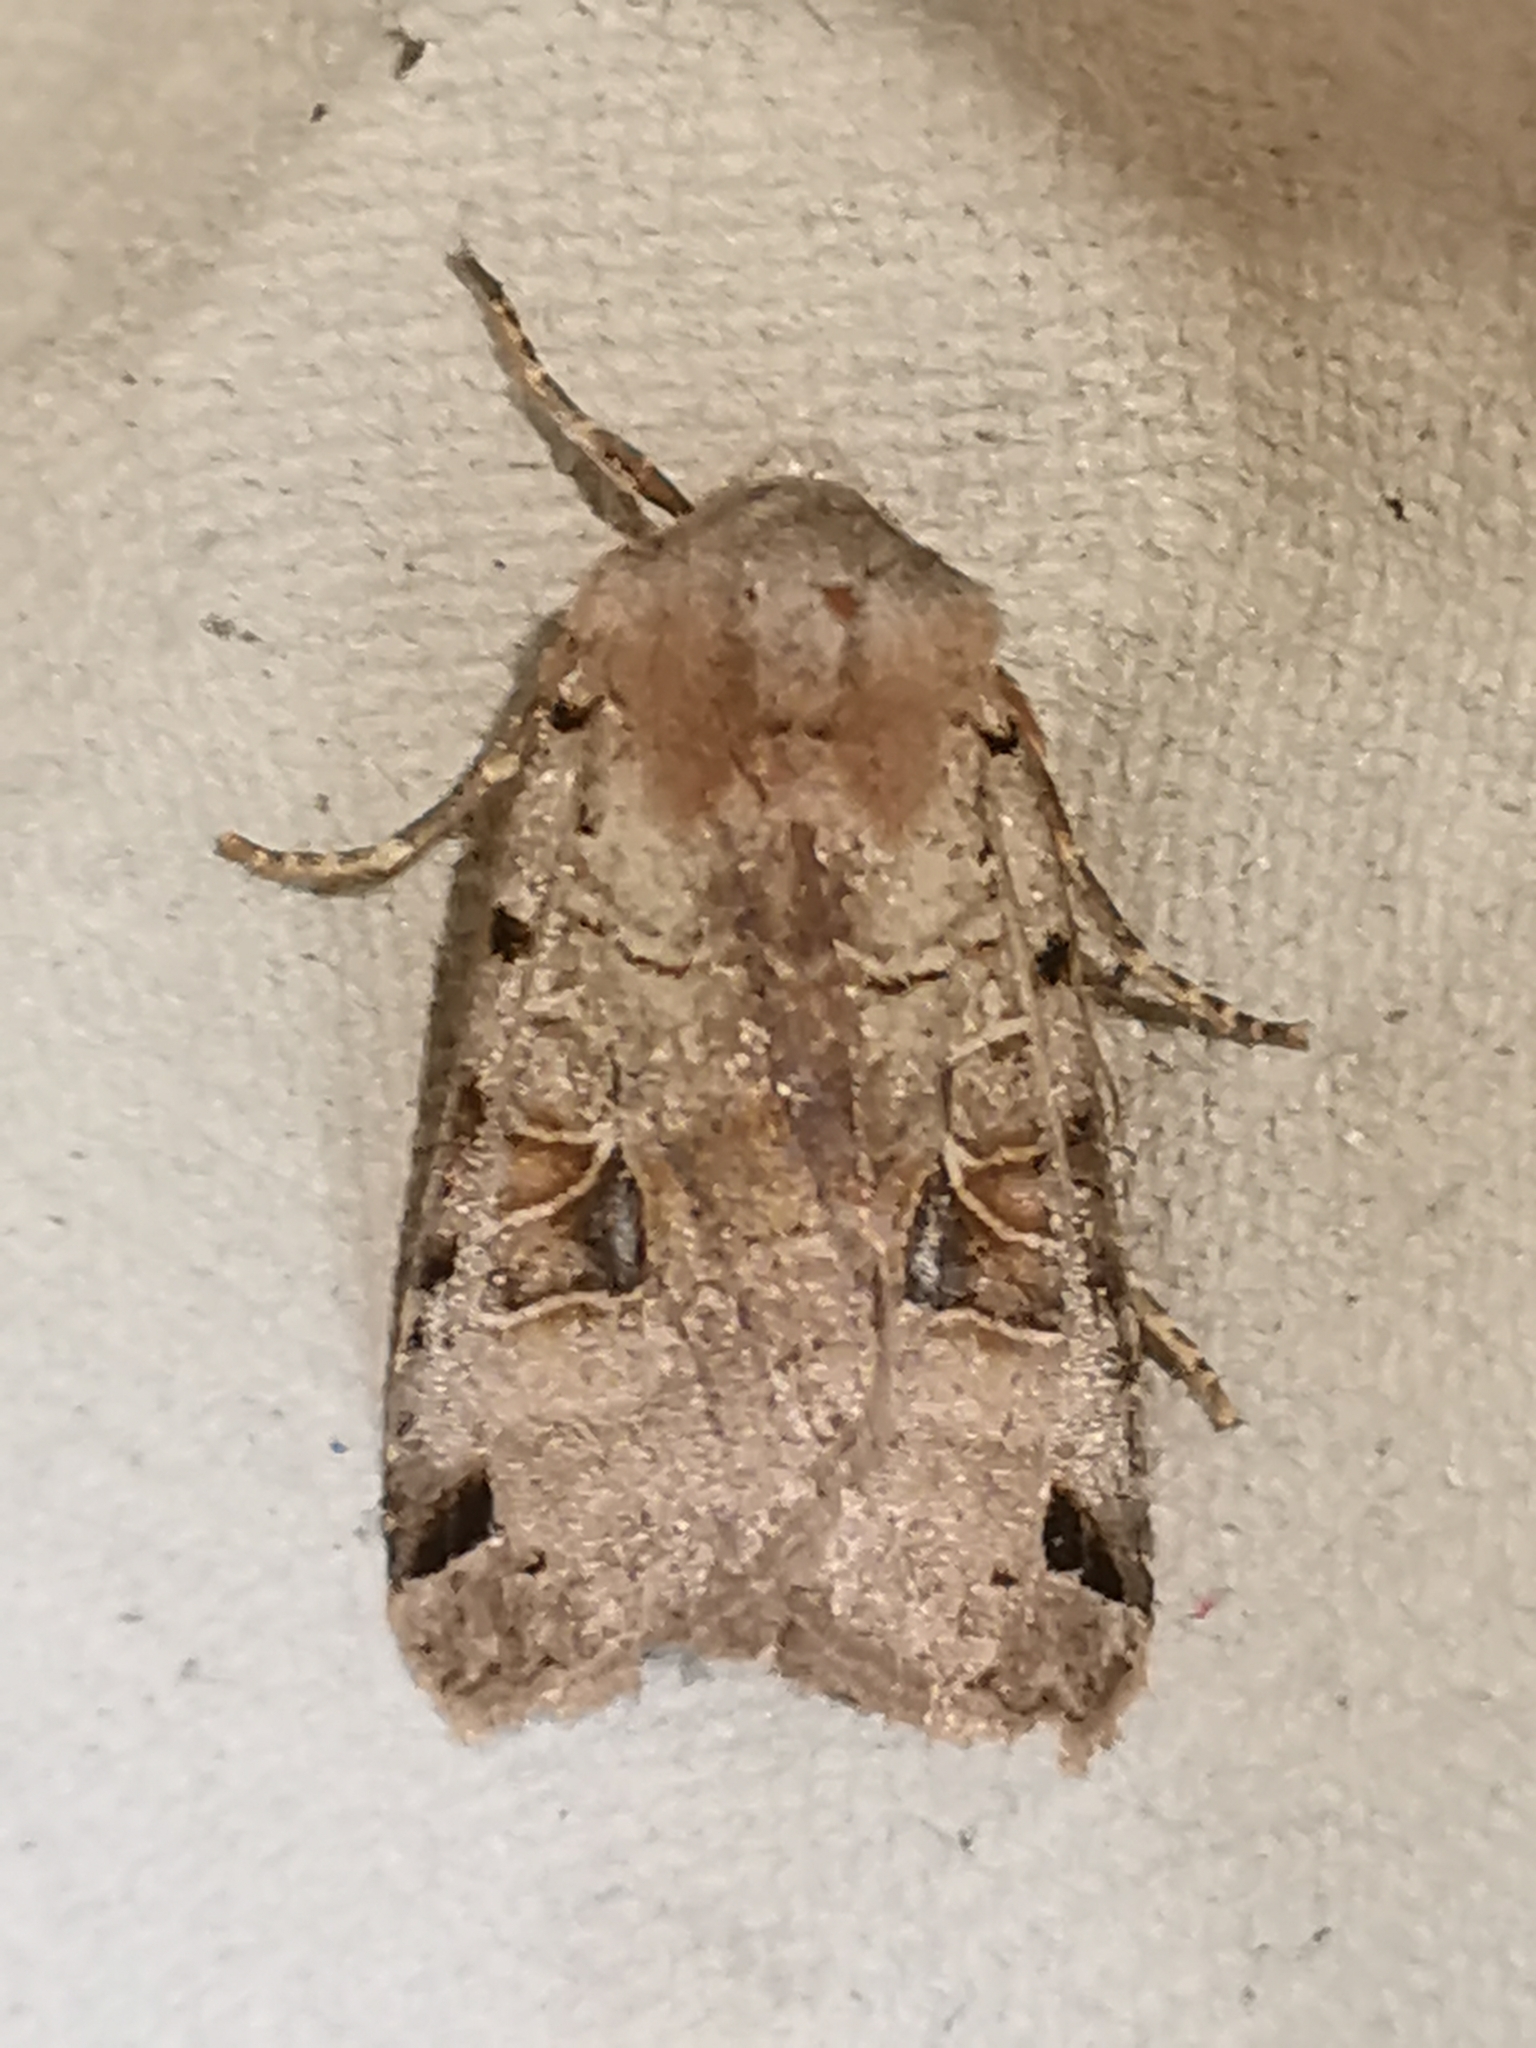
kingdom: Animalia
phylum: Arthropoda
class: Insecta
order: Lepidoptera
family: Noctuidae
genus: Agrochola
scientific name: Agrochola litura
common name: Brown-spot pinion
